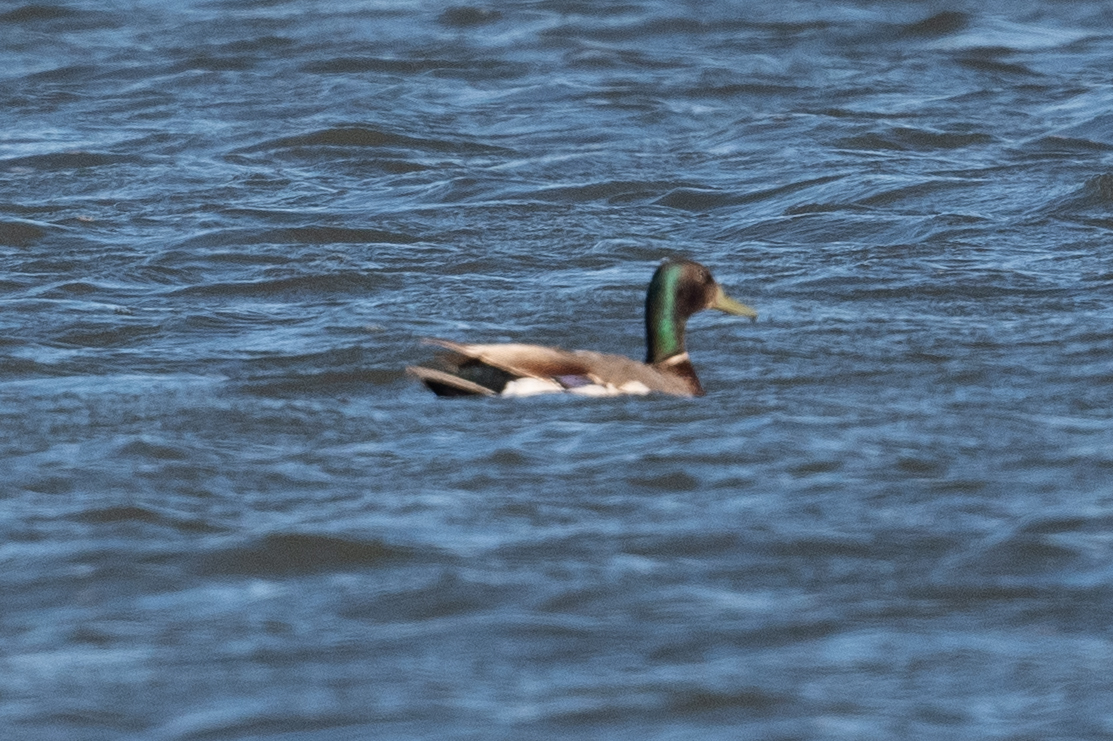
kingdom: Animalia
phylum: Chordata
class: Aves
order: Anseriformes
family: Anatidae
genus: Anas
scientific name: Anas platyrhynchos
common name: Mallard
